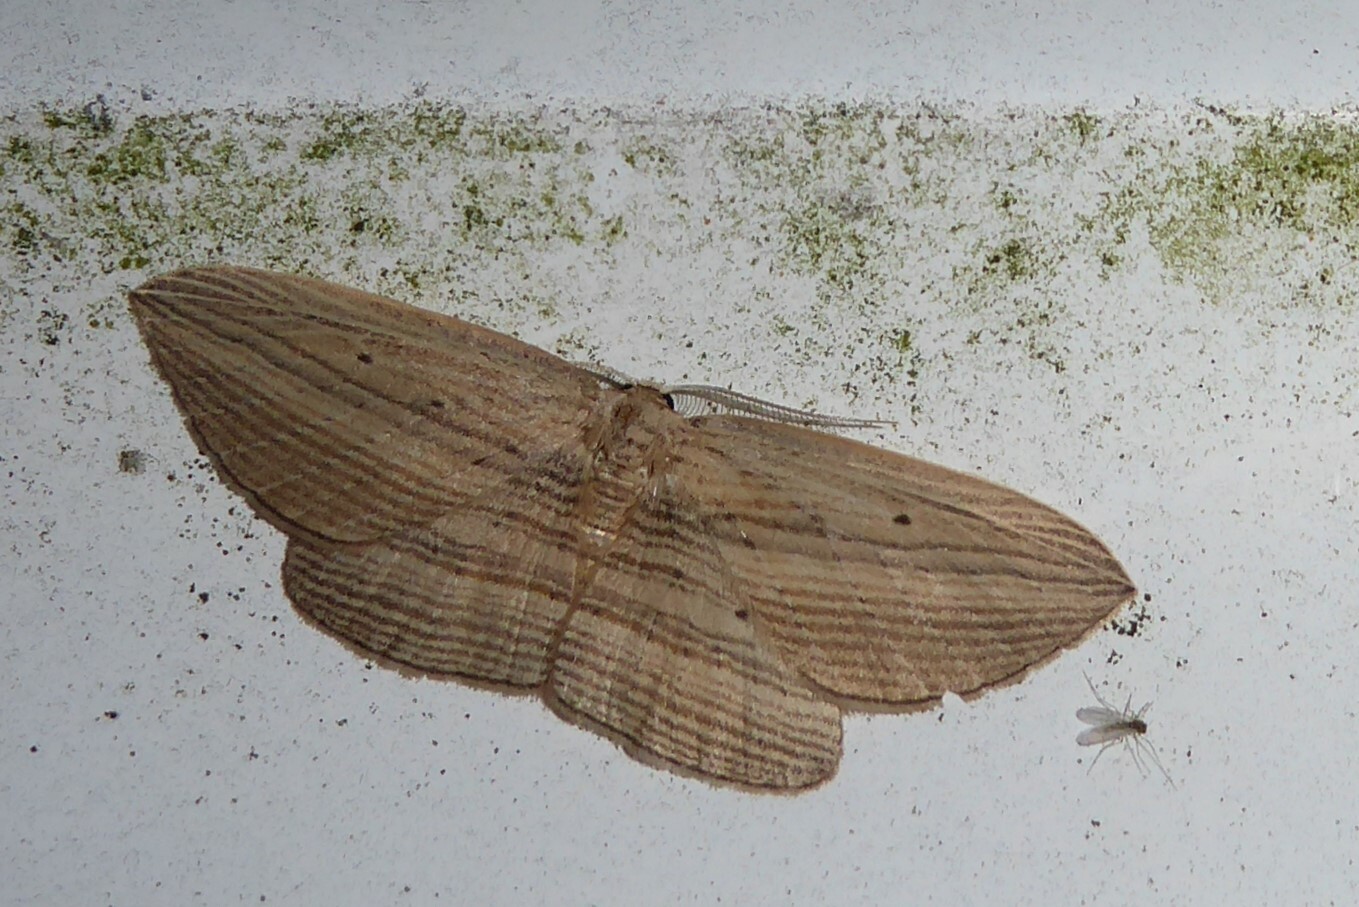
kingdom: Animalia
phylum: Arthropoda
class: Insecta
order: Lepidoptera
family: Geometridae
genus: Epiphryne
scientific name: Epiphryne verriculata
